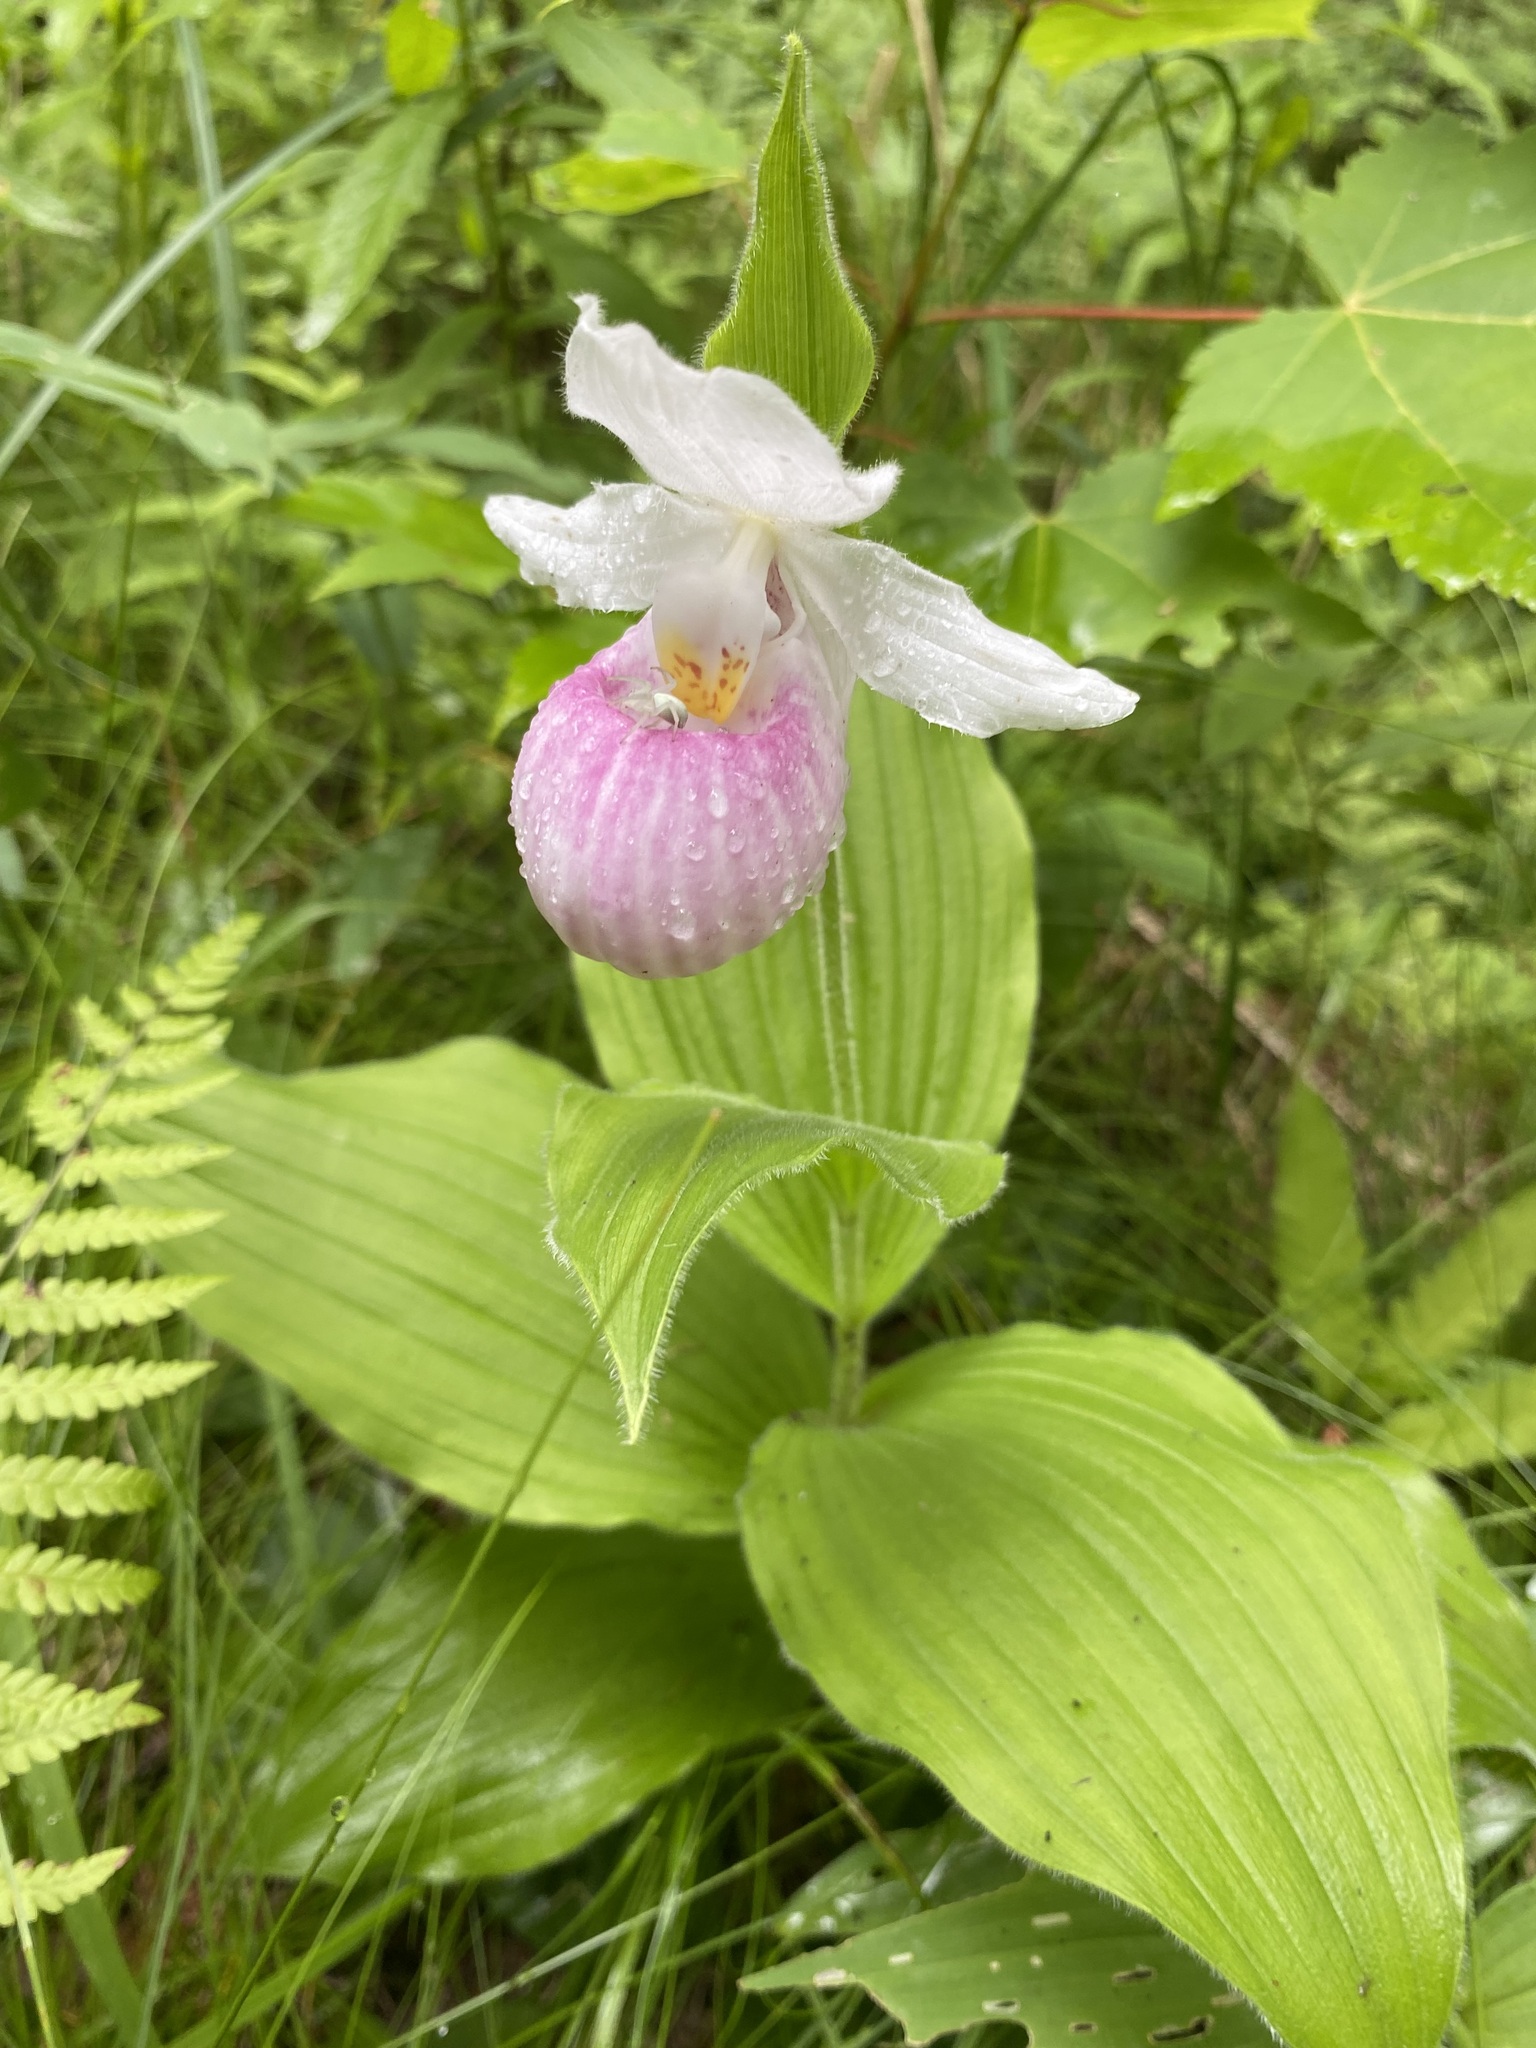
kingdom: Plantae
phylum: Tracheophyta
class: Liliopsida
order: Asparagales
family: Orchidaceae
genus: Cypripedium
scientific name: Cypripedium reginae
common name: Queen lady's-slipper
